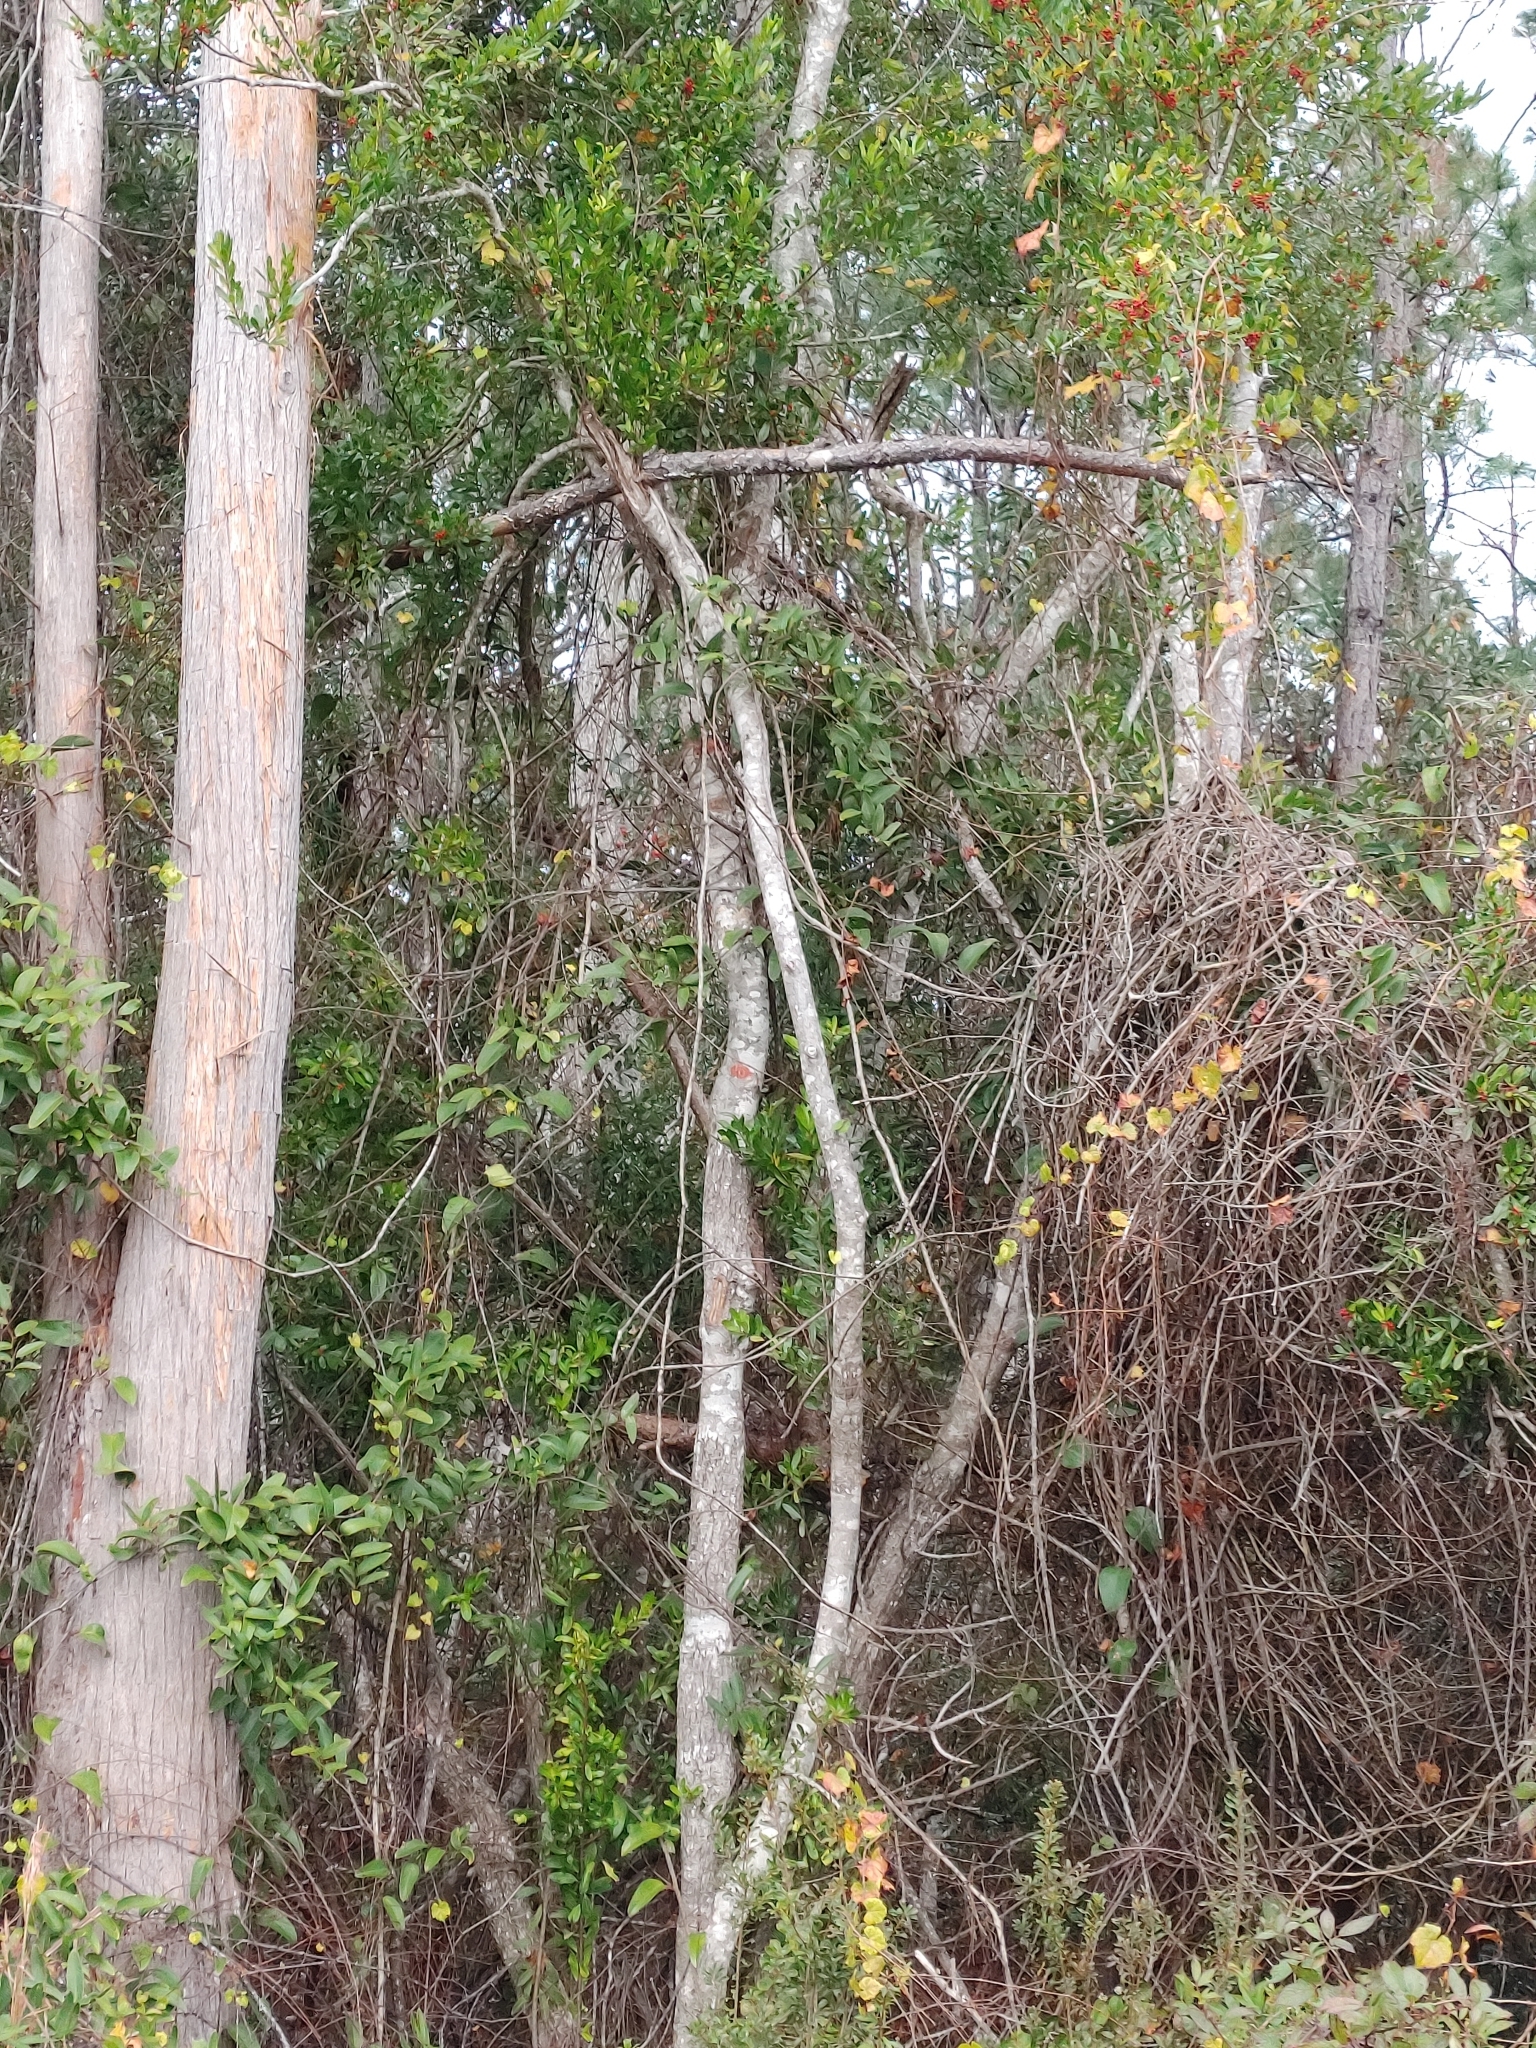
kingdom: Plantae
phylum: Tracheophyta
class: Magnoliopsida
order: Aquifoliales
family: Aquifoliaceae
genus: Ilex
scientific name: Ilex cassine
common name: Dahoon
